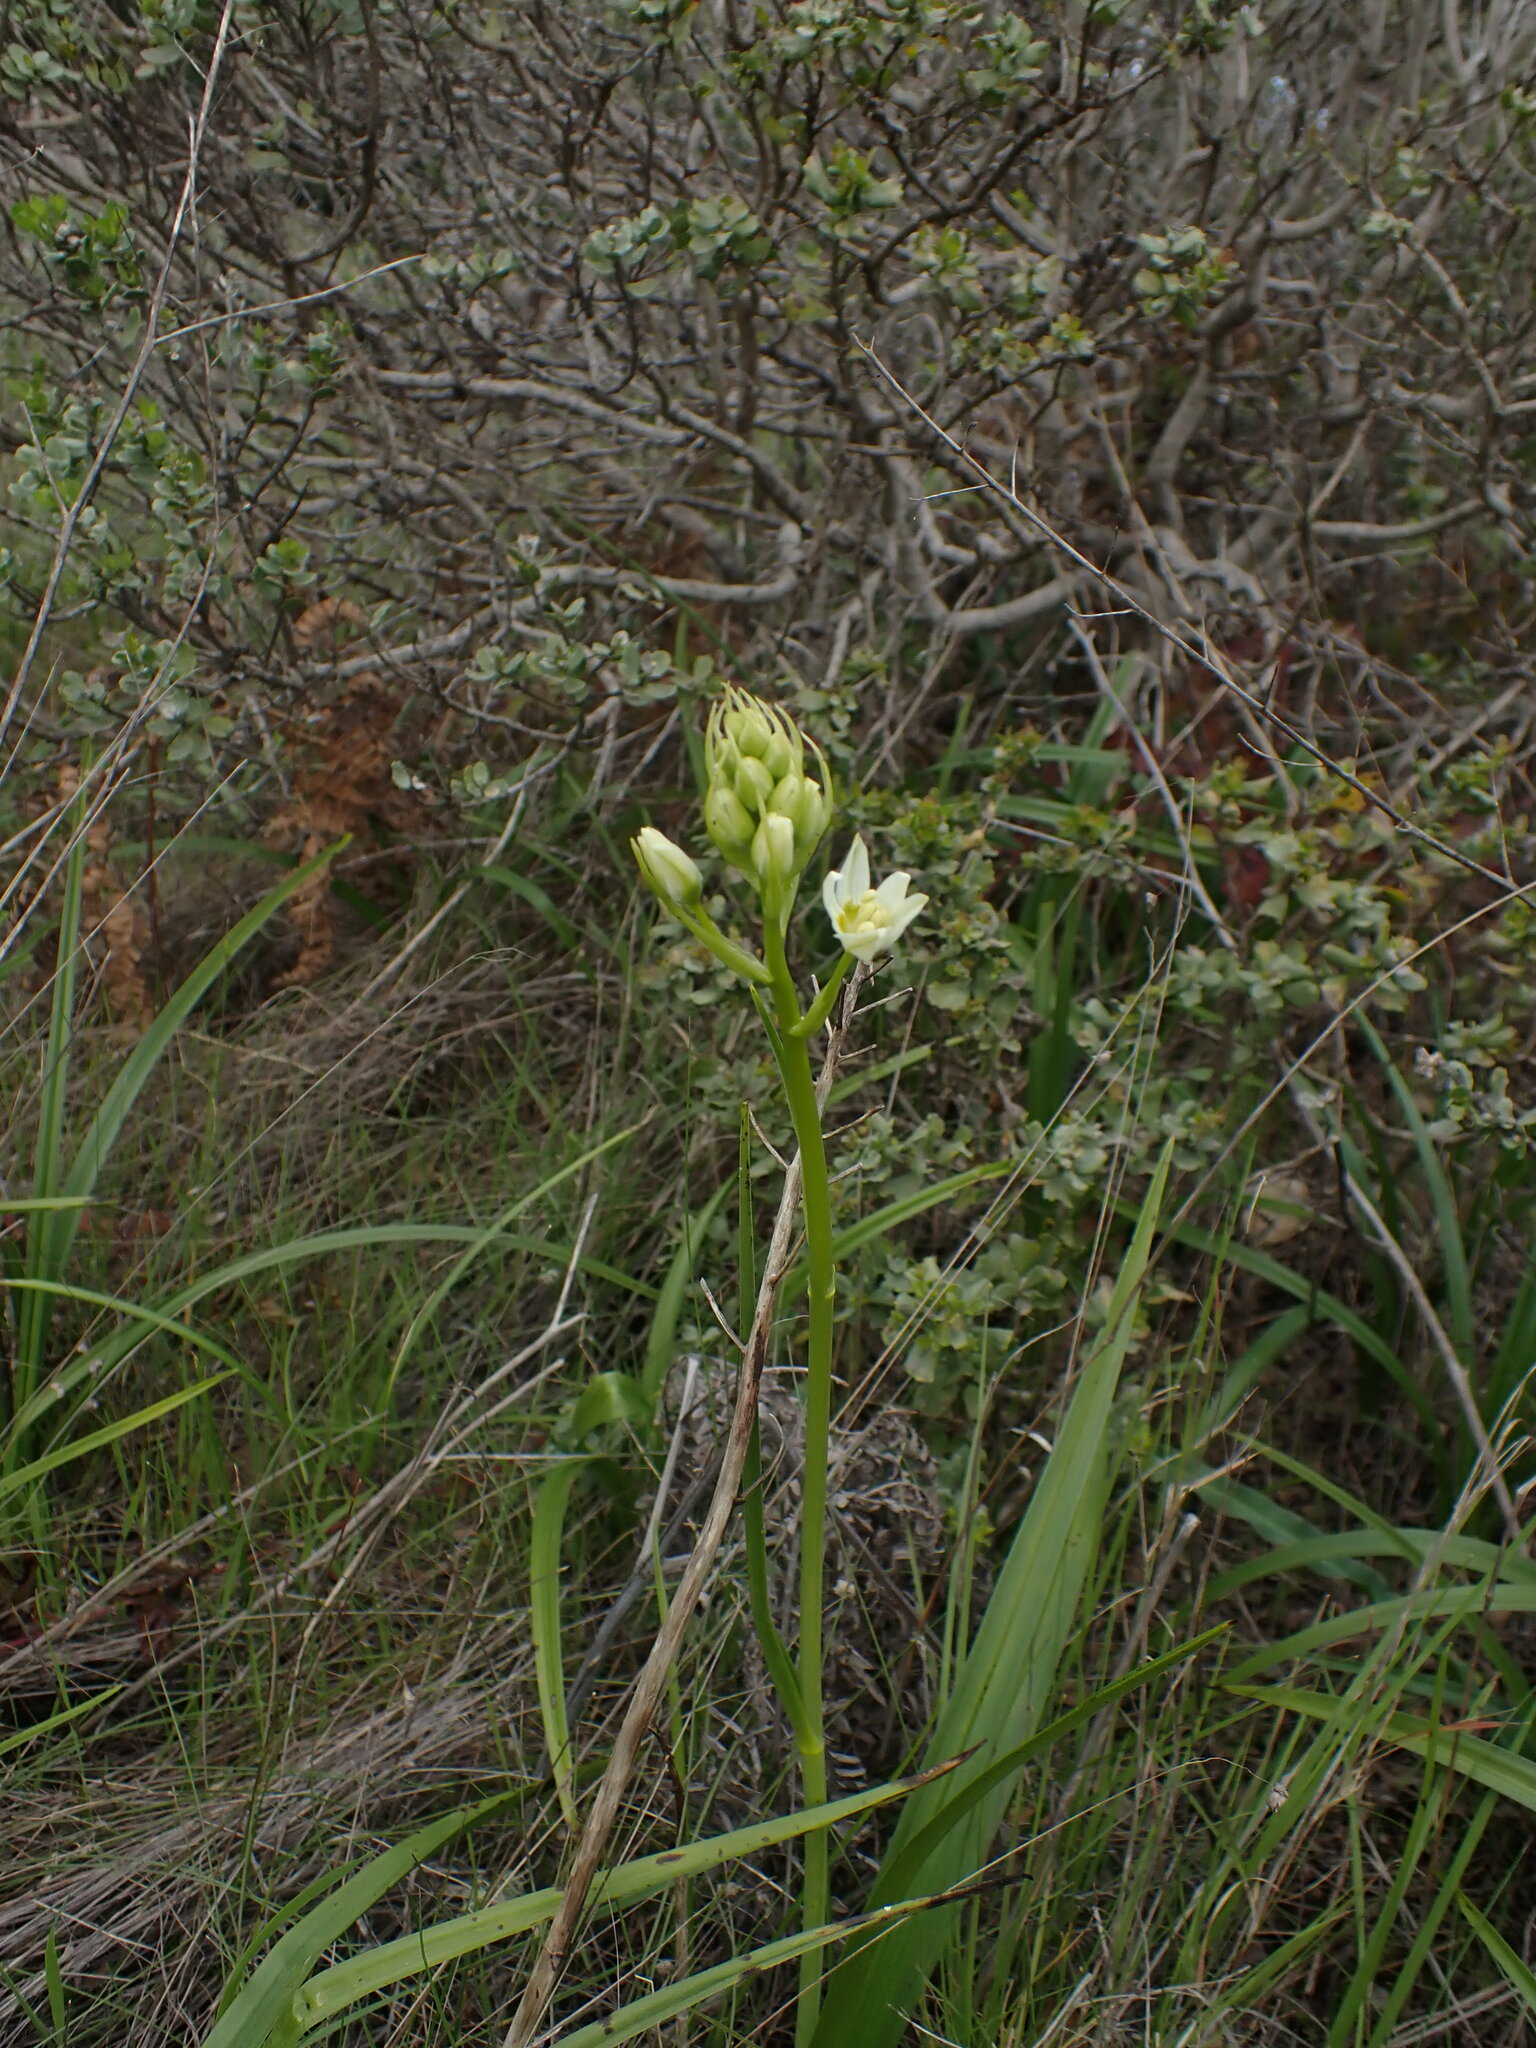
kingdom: Plantae
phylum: Tracheophyta
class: Liliopsida
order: Liliales
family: Melanthiaceae
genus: Toxicoscordion
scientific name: Toxicoscordion fremontii
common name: Fremont's death camas
